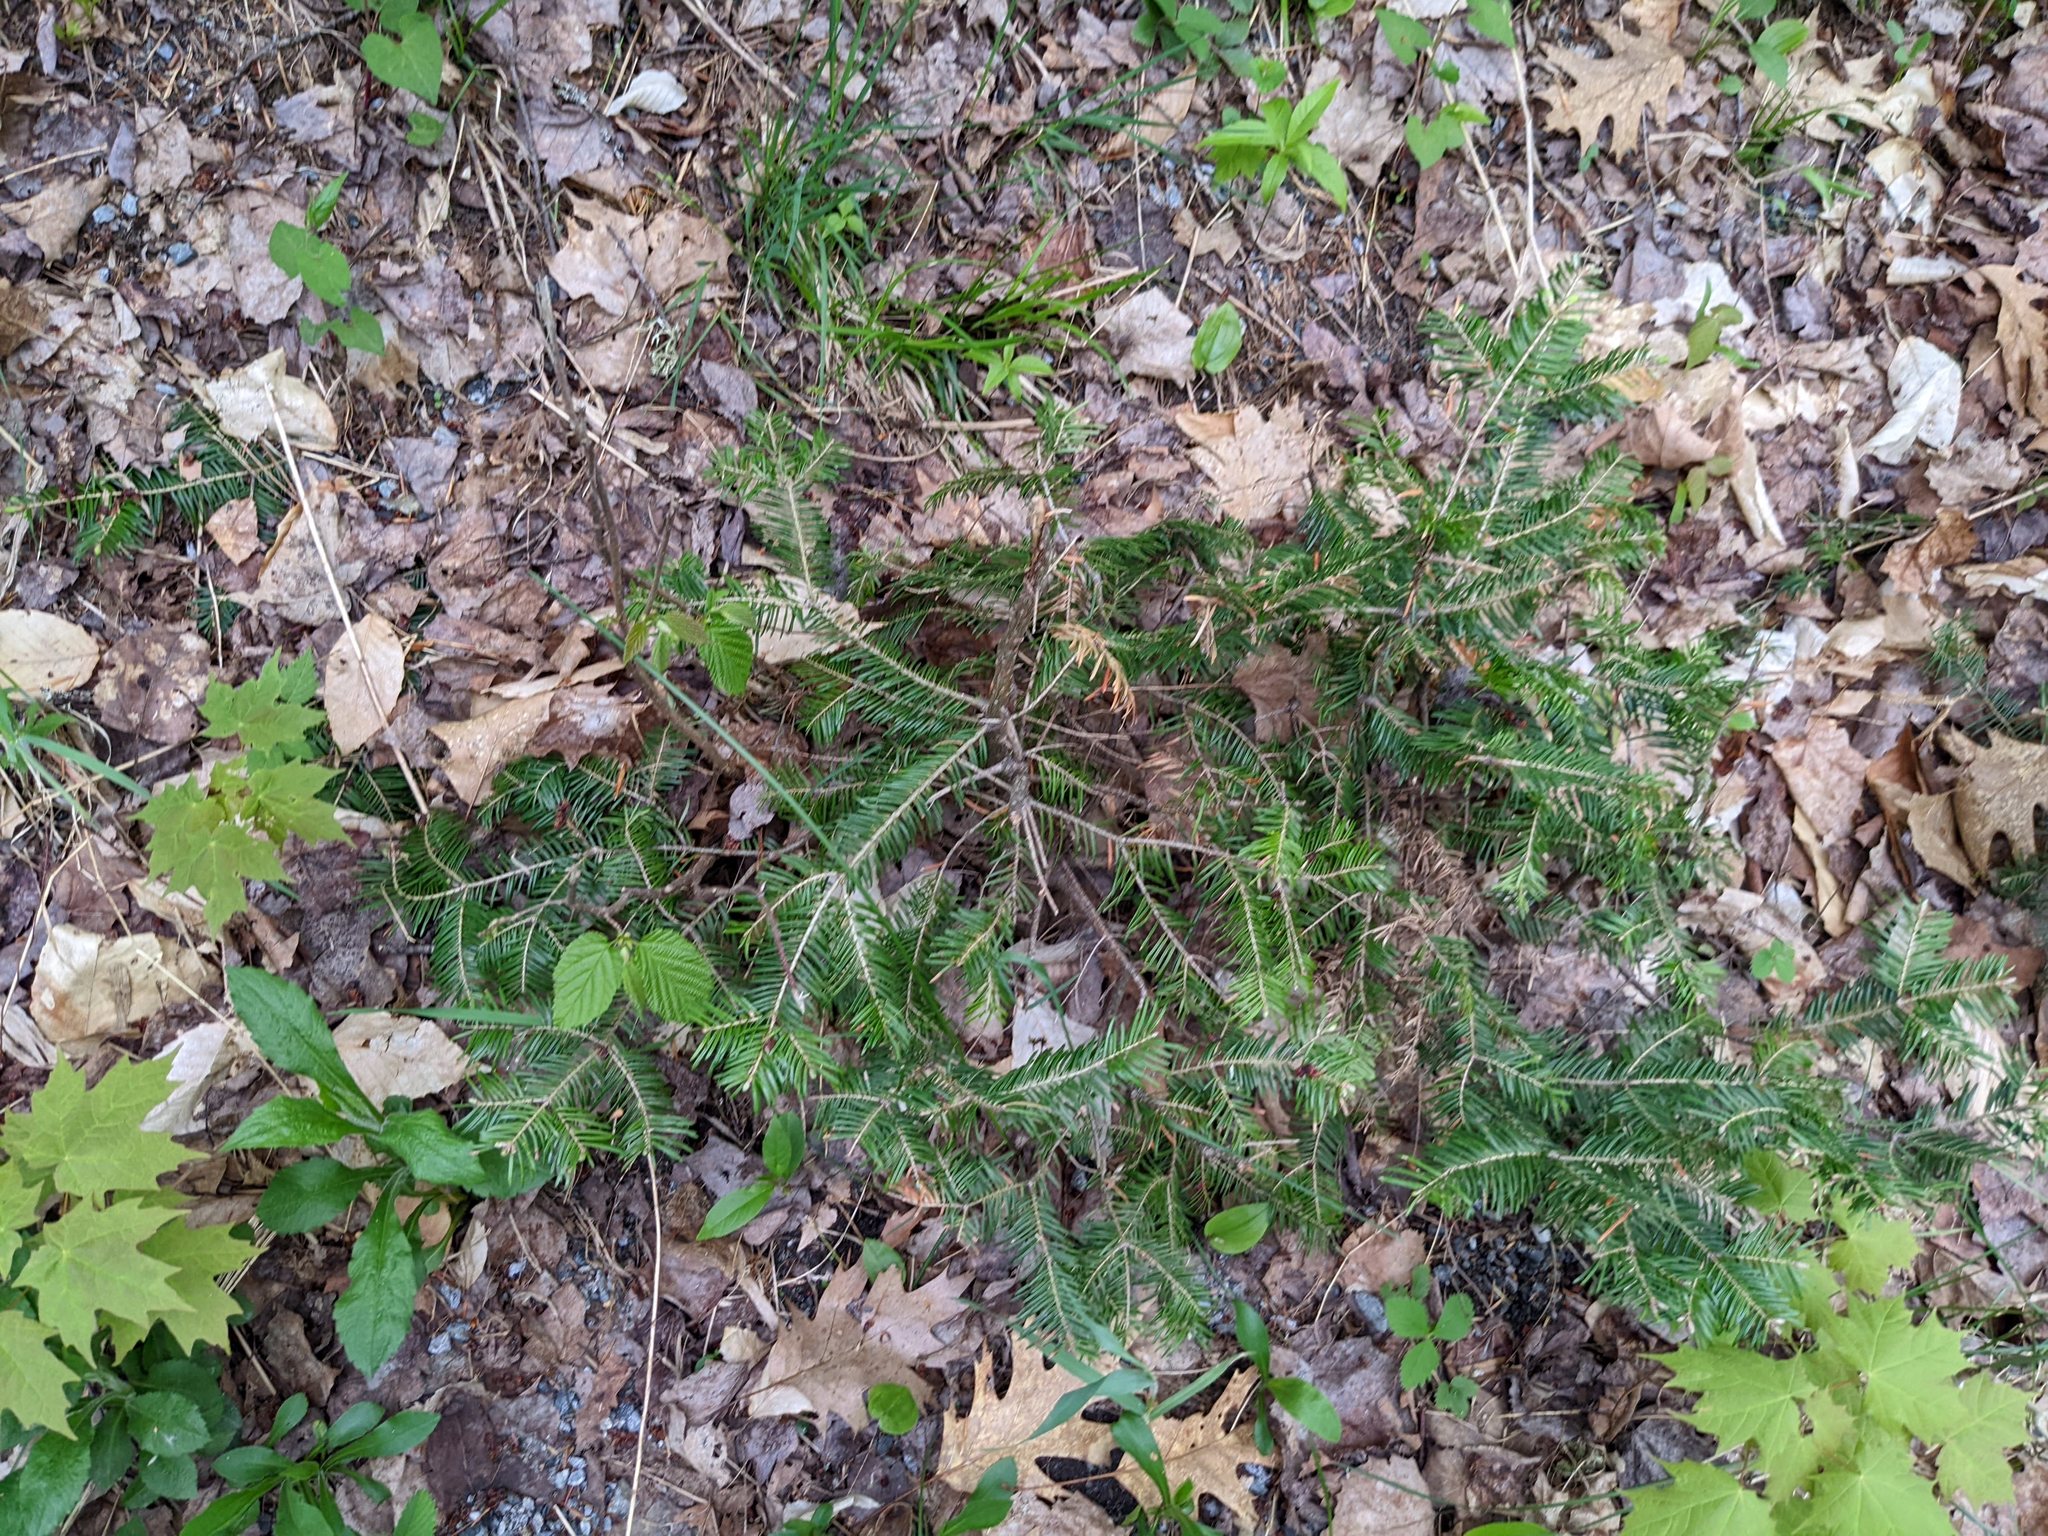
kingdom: Plantae
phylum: Tracheophyta
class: Pinopsida
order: Pinales
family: Pinaceae
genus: Abies
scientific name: Abies balsamea
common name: Balsam fir
